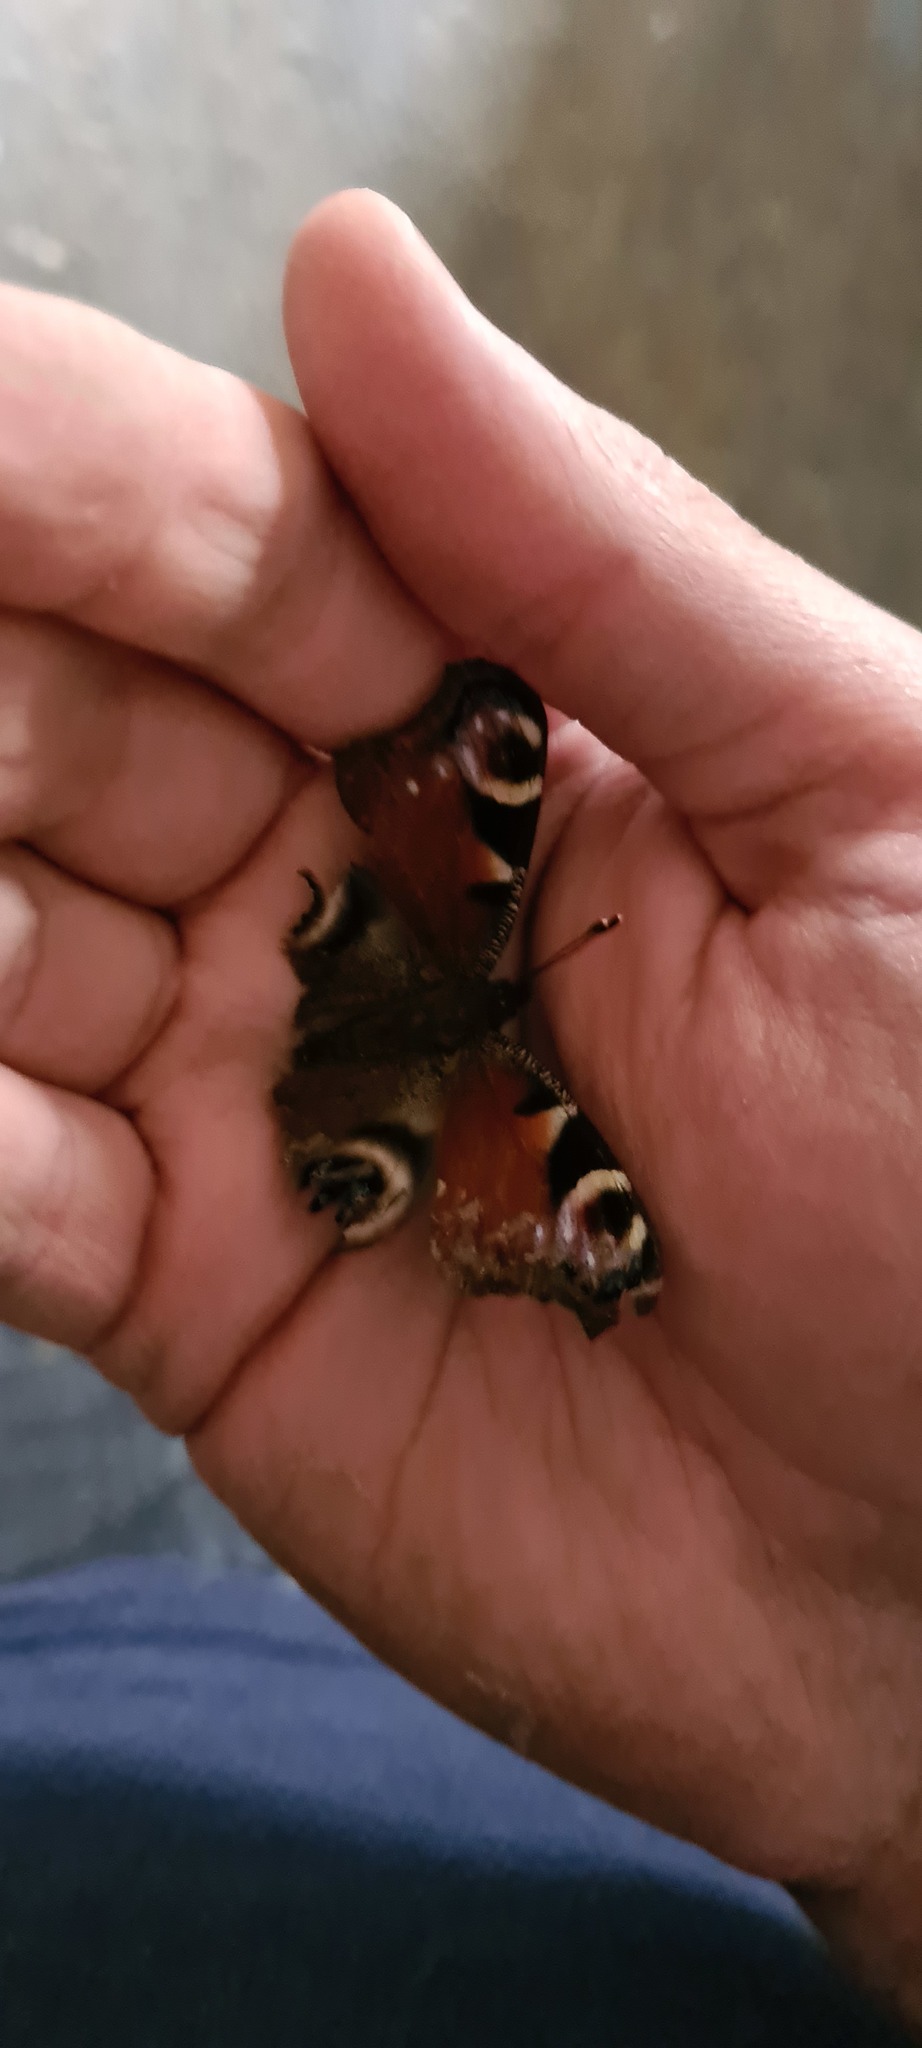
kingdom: Animalia
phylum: Arthropoda
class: Insecta
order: Lepidoptera
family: Nymphalidae
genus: Aglais
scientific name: Aglais io
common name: Peacock
